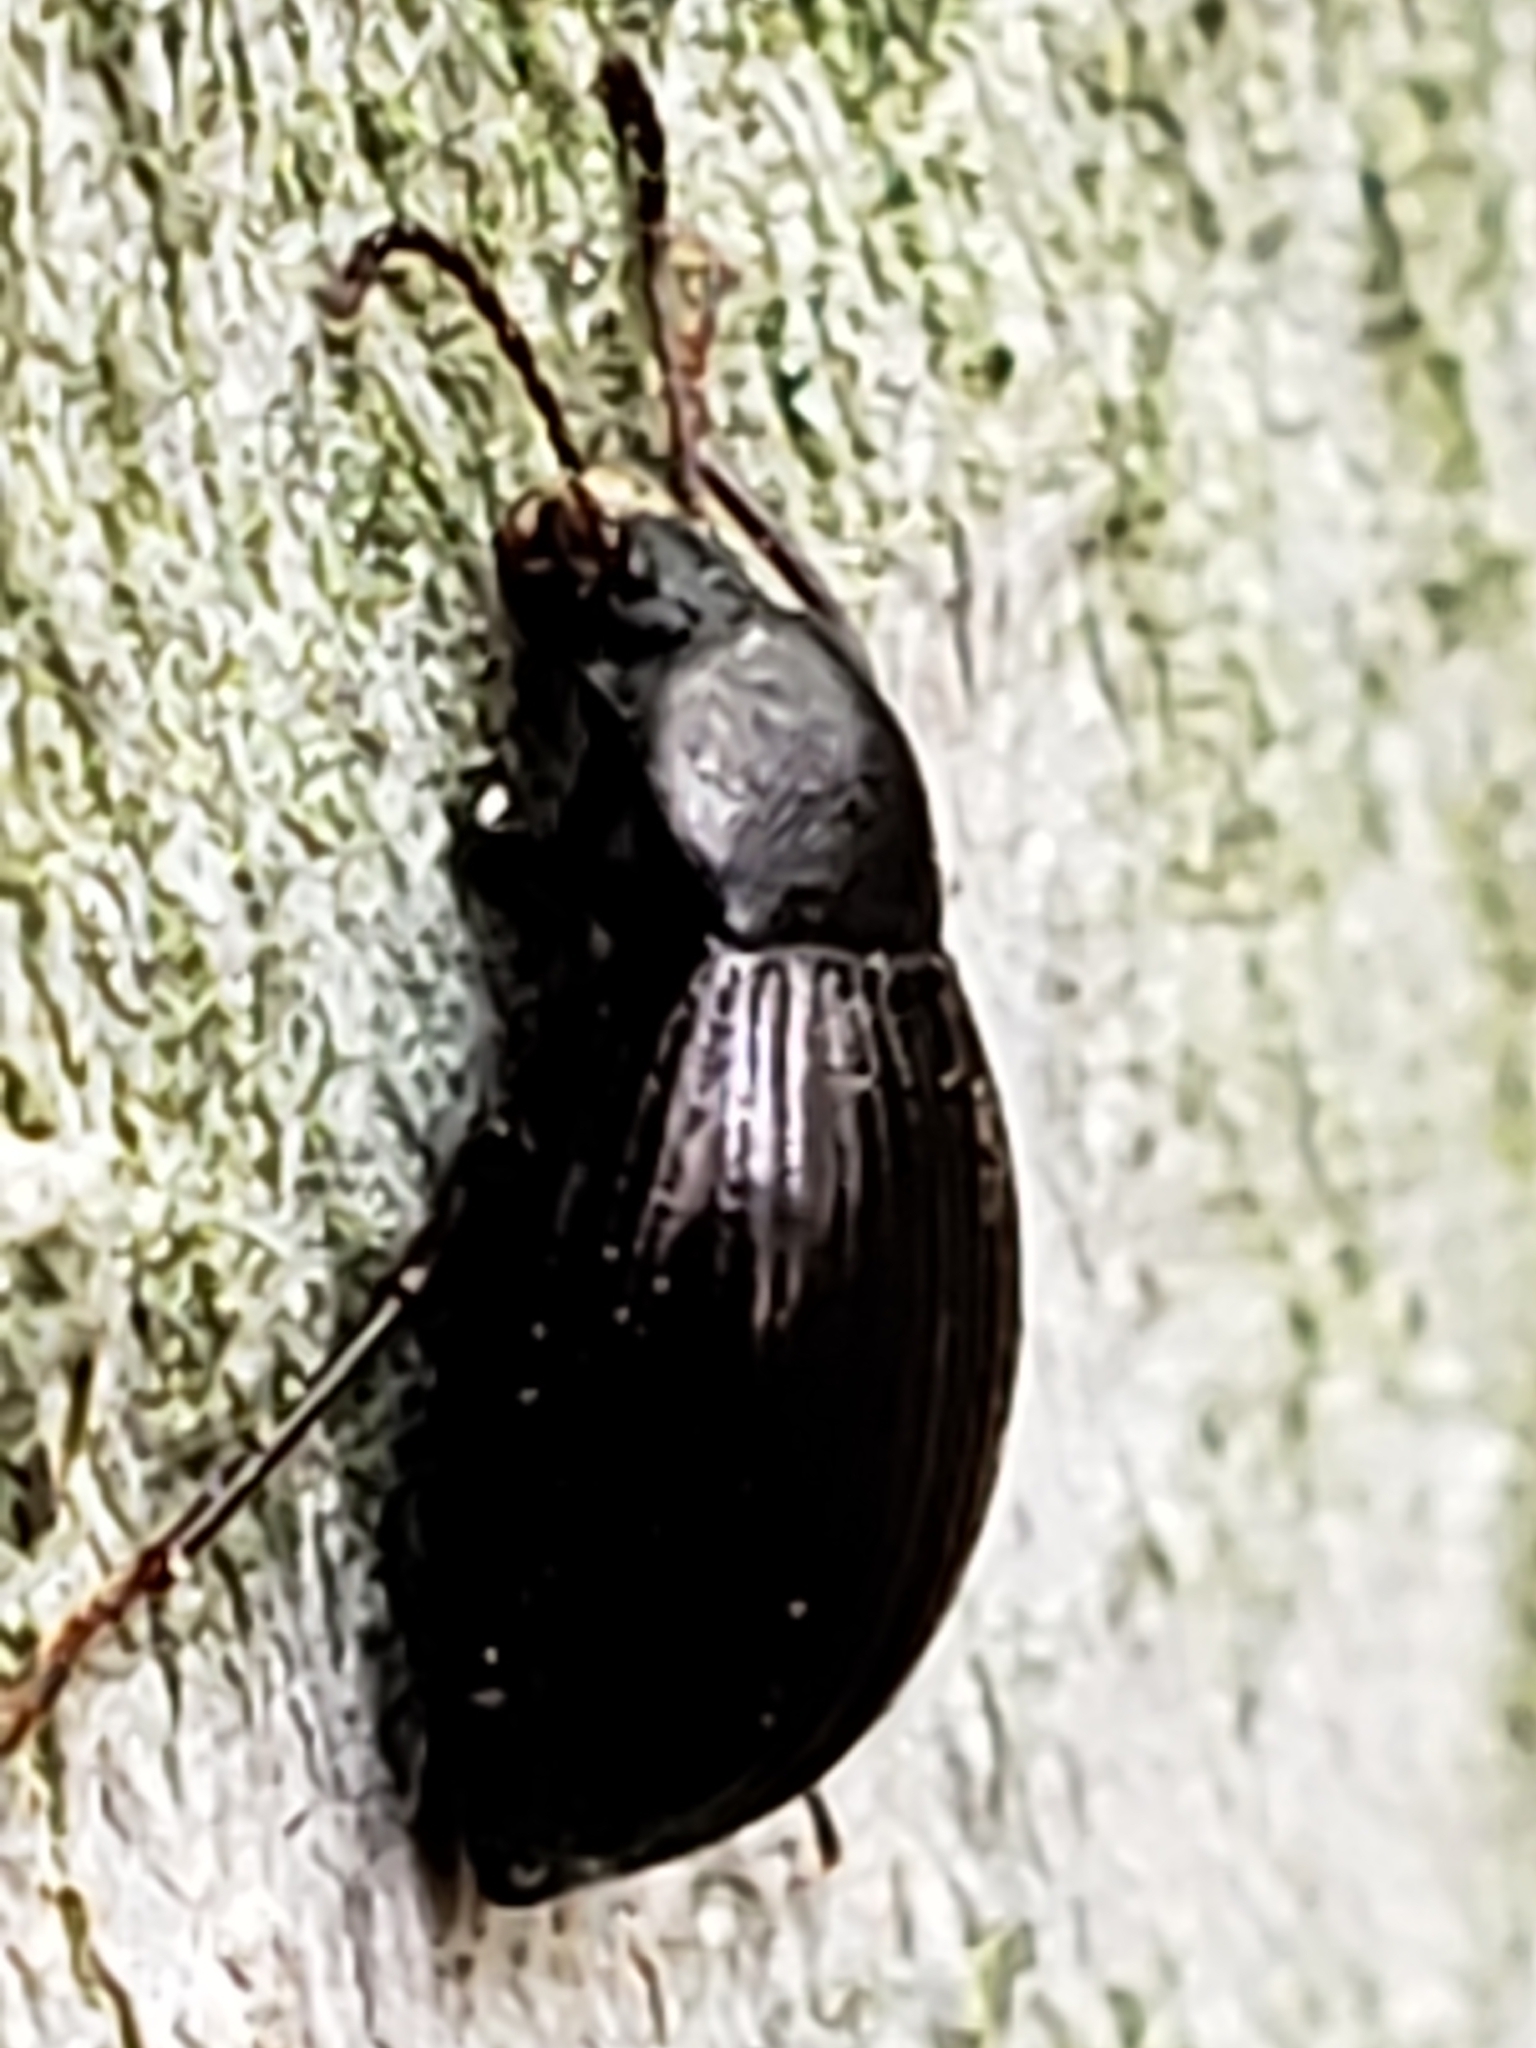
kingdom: Animalia
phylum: Arthropoda
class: Insecta
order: Coleoptera
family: Tenebrionidae
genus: Nalassus
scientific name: Nalassus aereus
